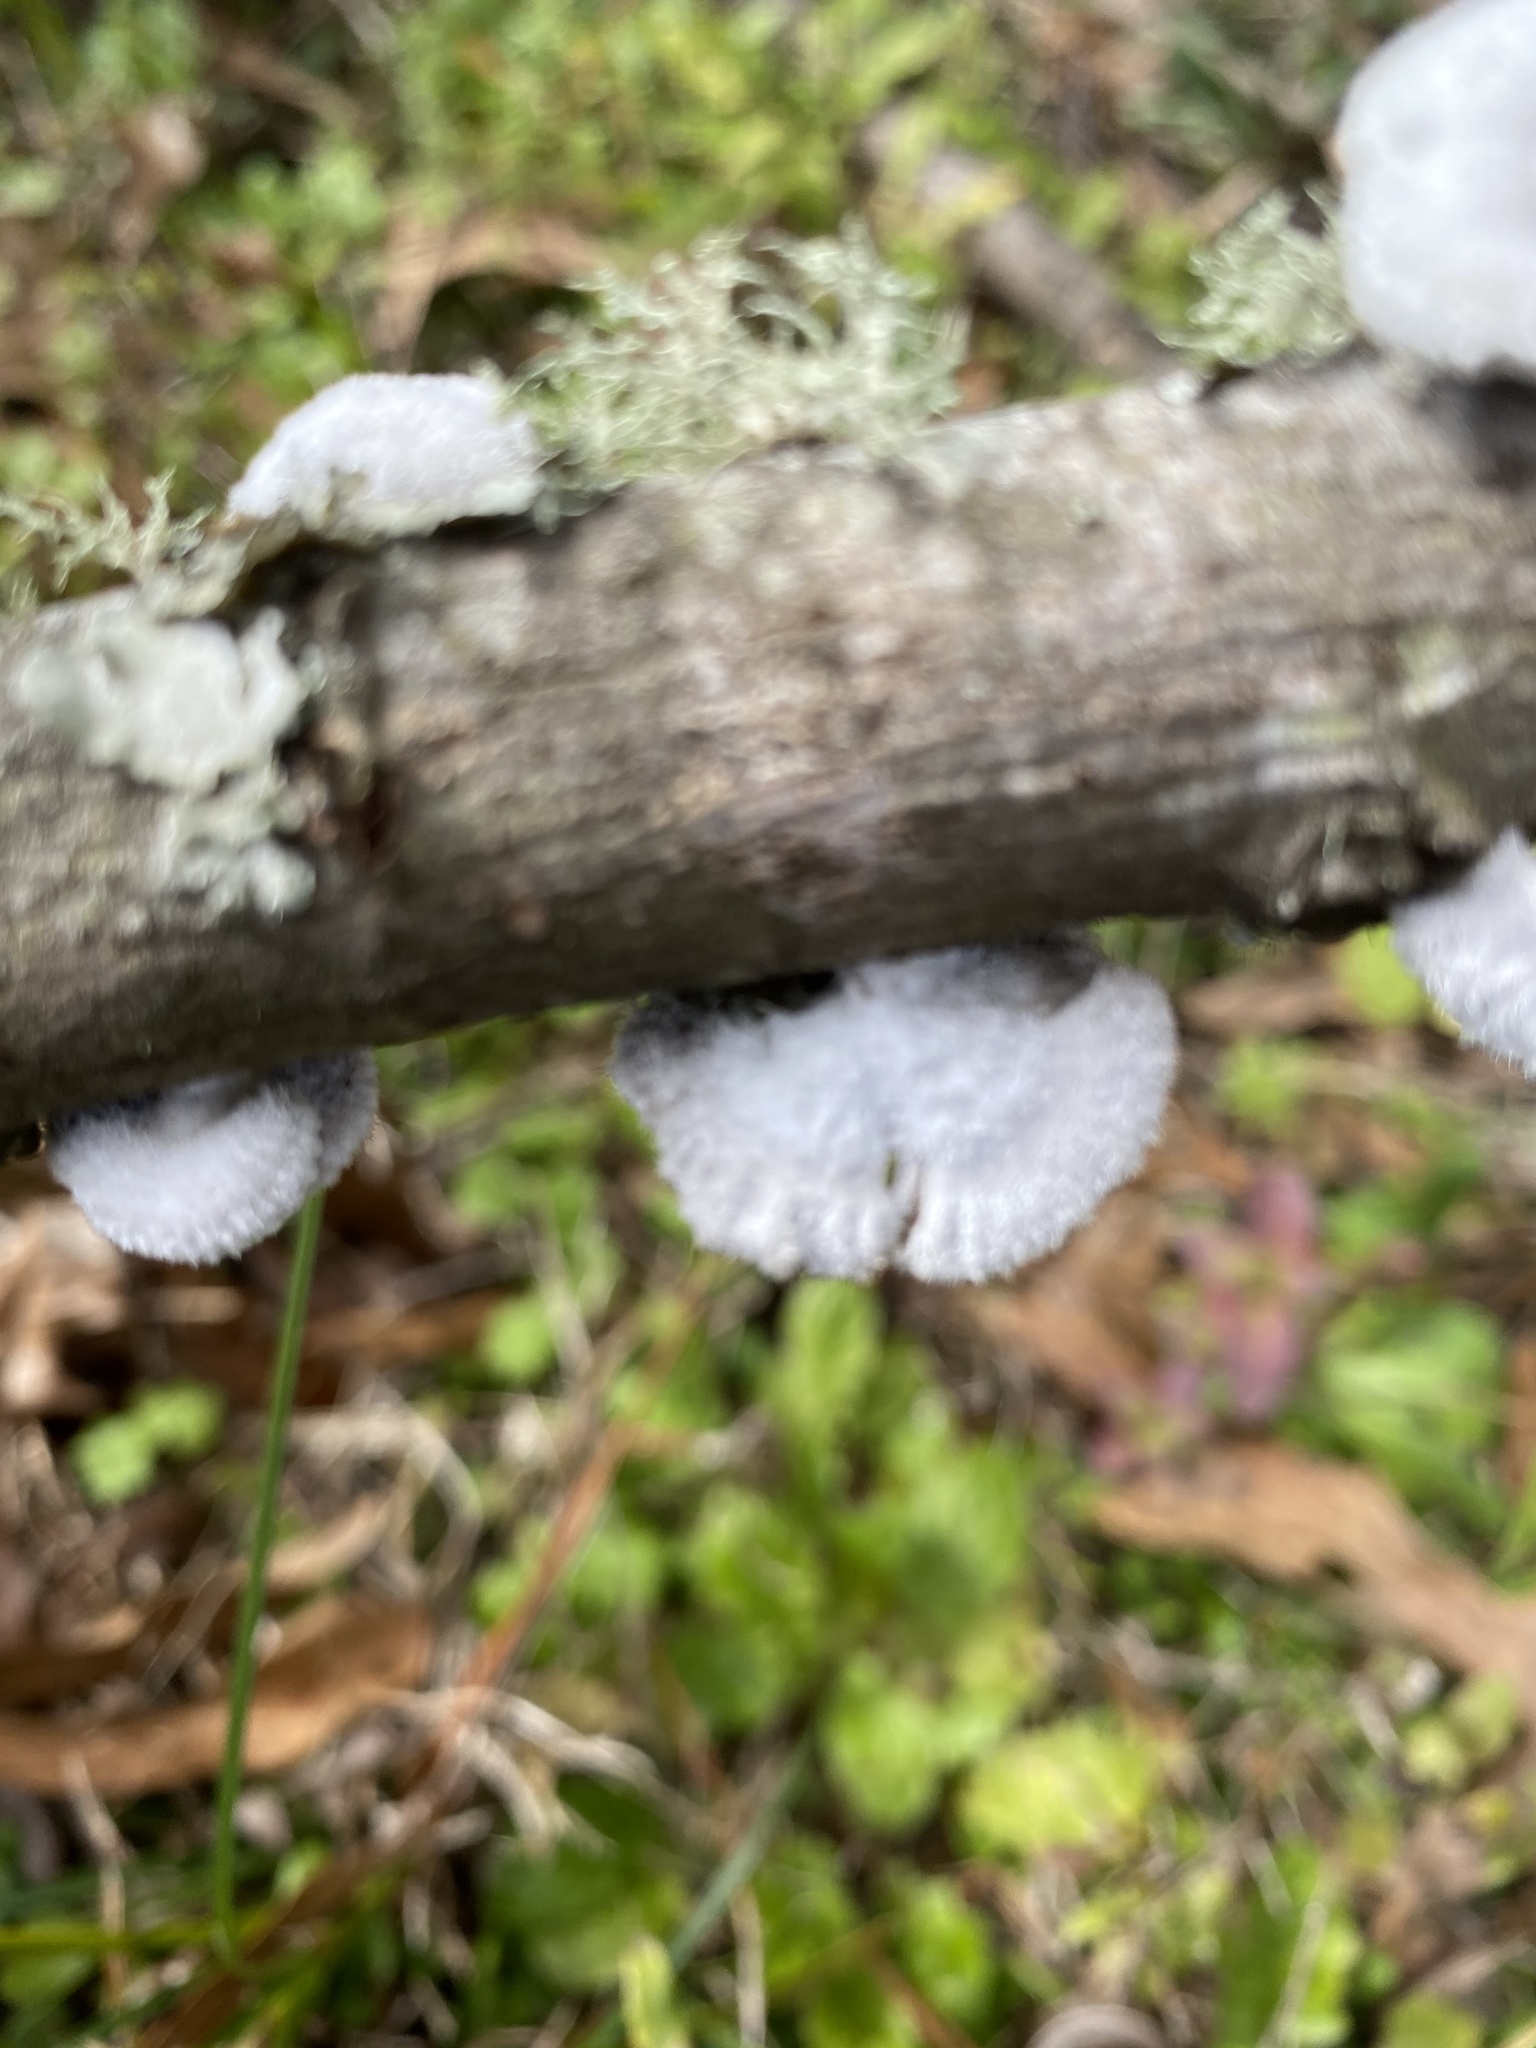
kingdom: Fungi
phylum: Basidiomycota
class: Agaricomycetes
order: Agaricales
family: Schizophyllaceae
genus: Schizophyllum
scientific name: Schizophyllum commune
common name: Common porecrust
